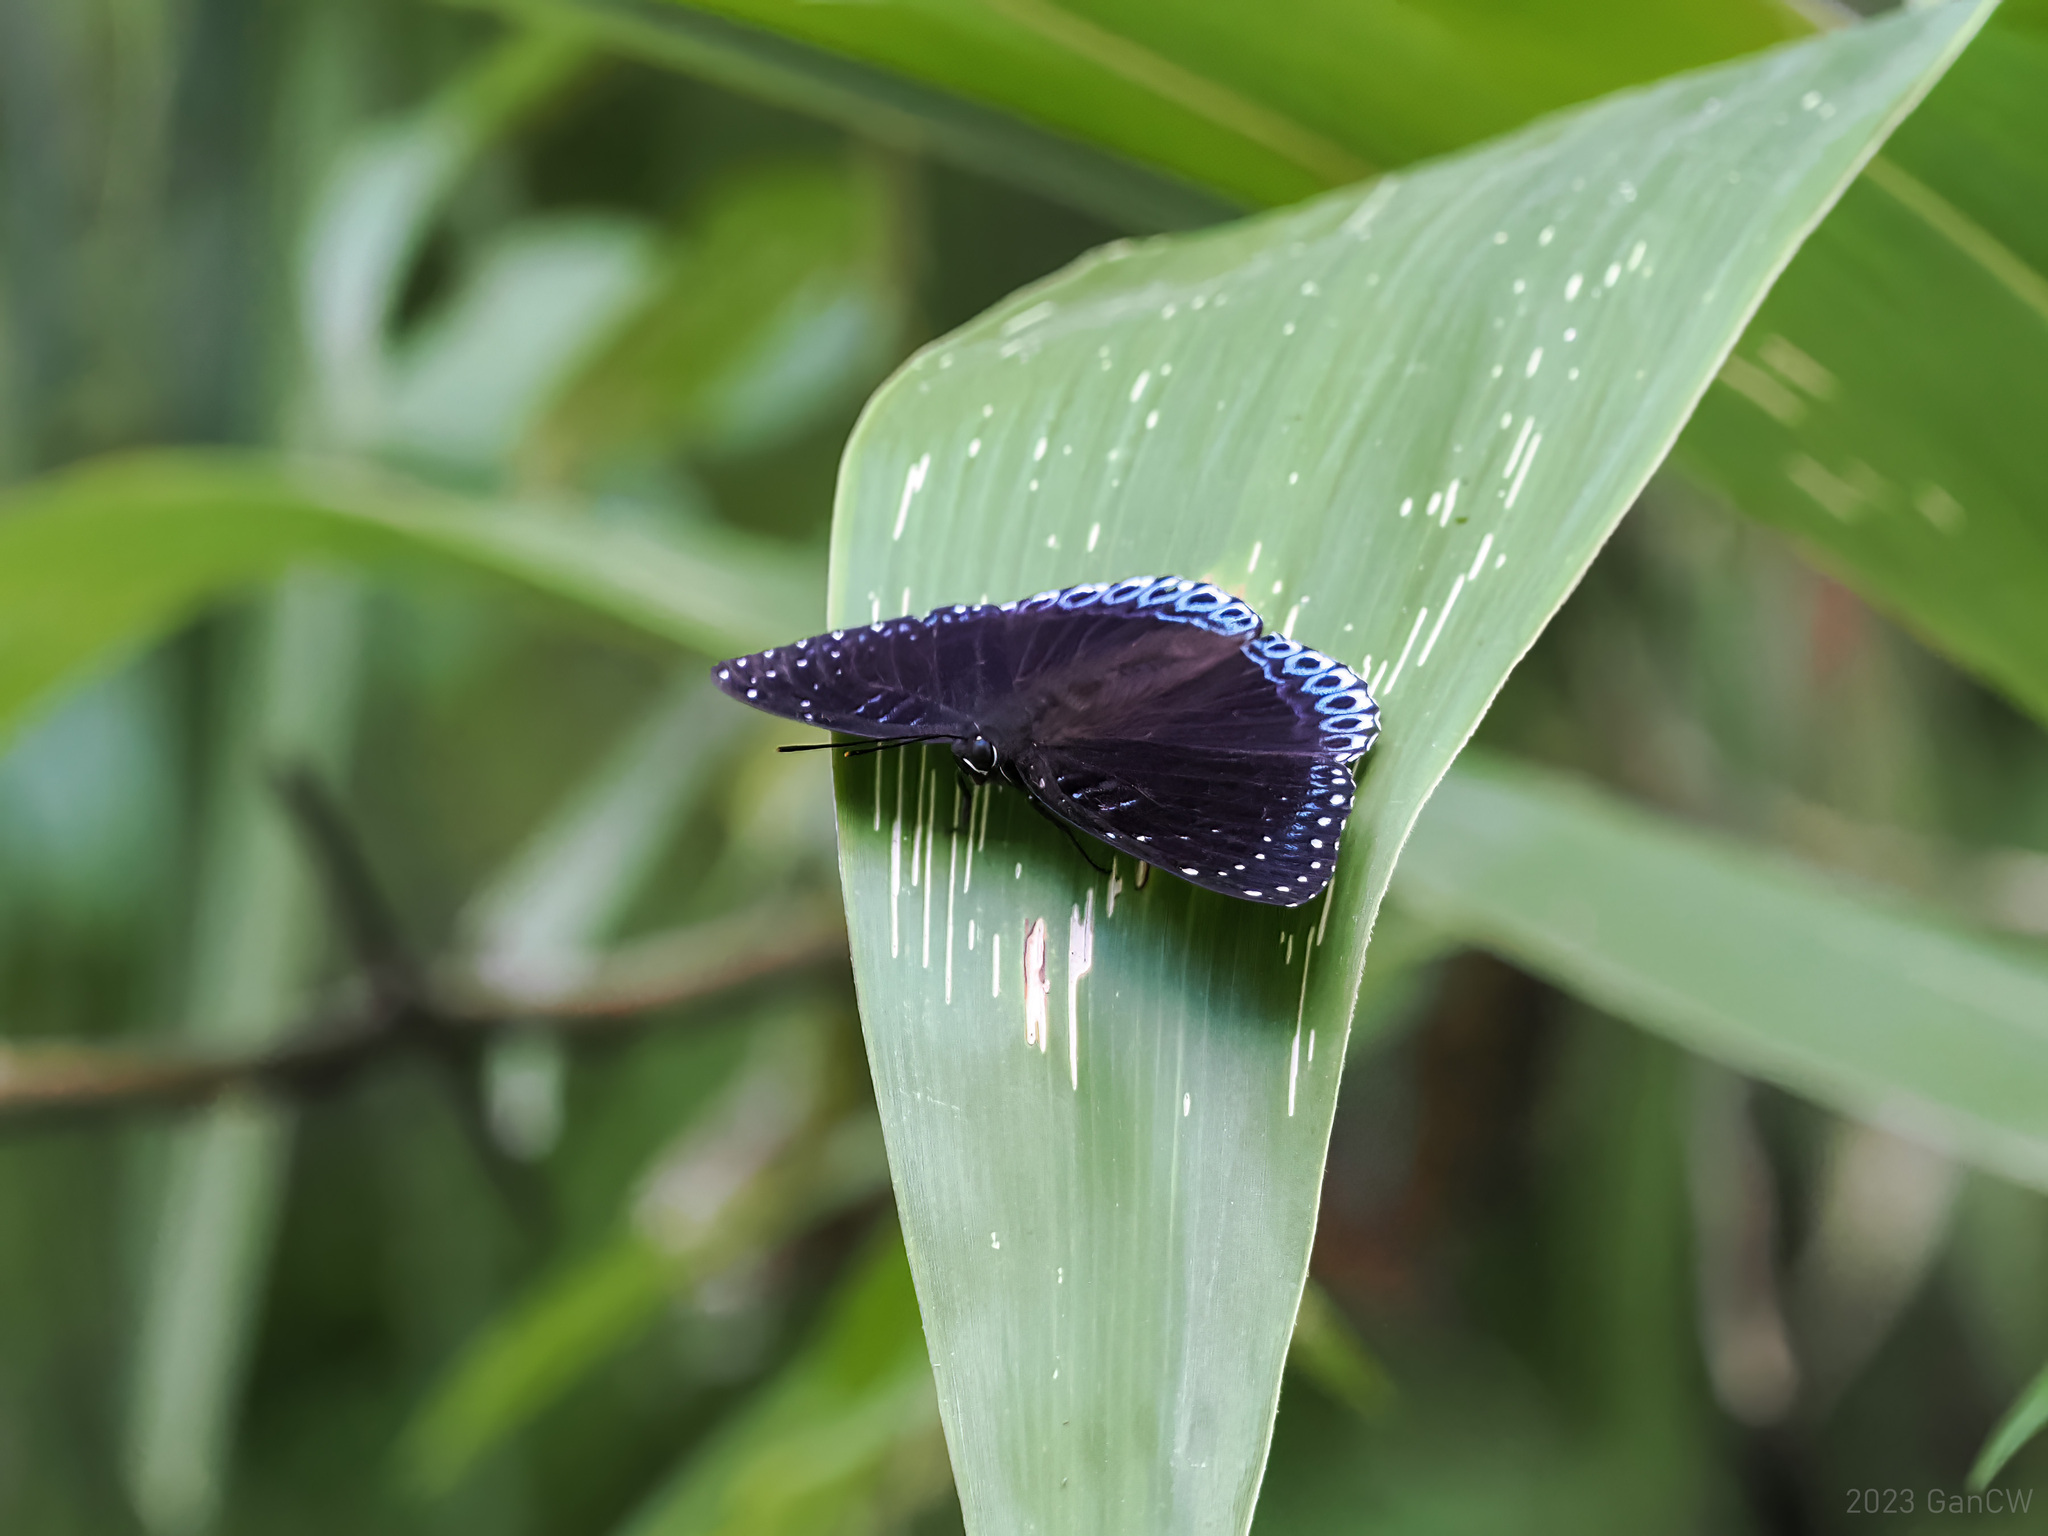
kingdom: Animalia
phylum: Arthropoda
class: Insecta
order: Lepidoptera
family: Nymphalidae
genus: Stibochiona
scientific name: Stibochiona nicea
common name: Popinjay
